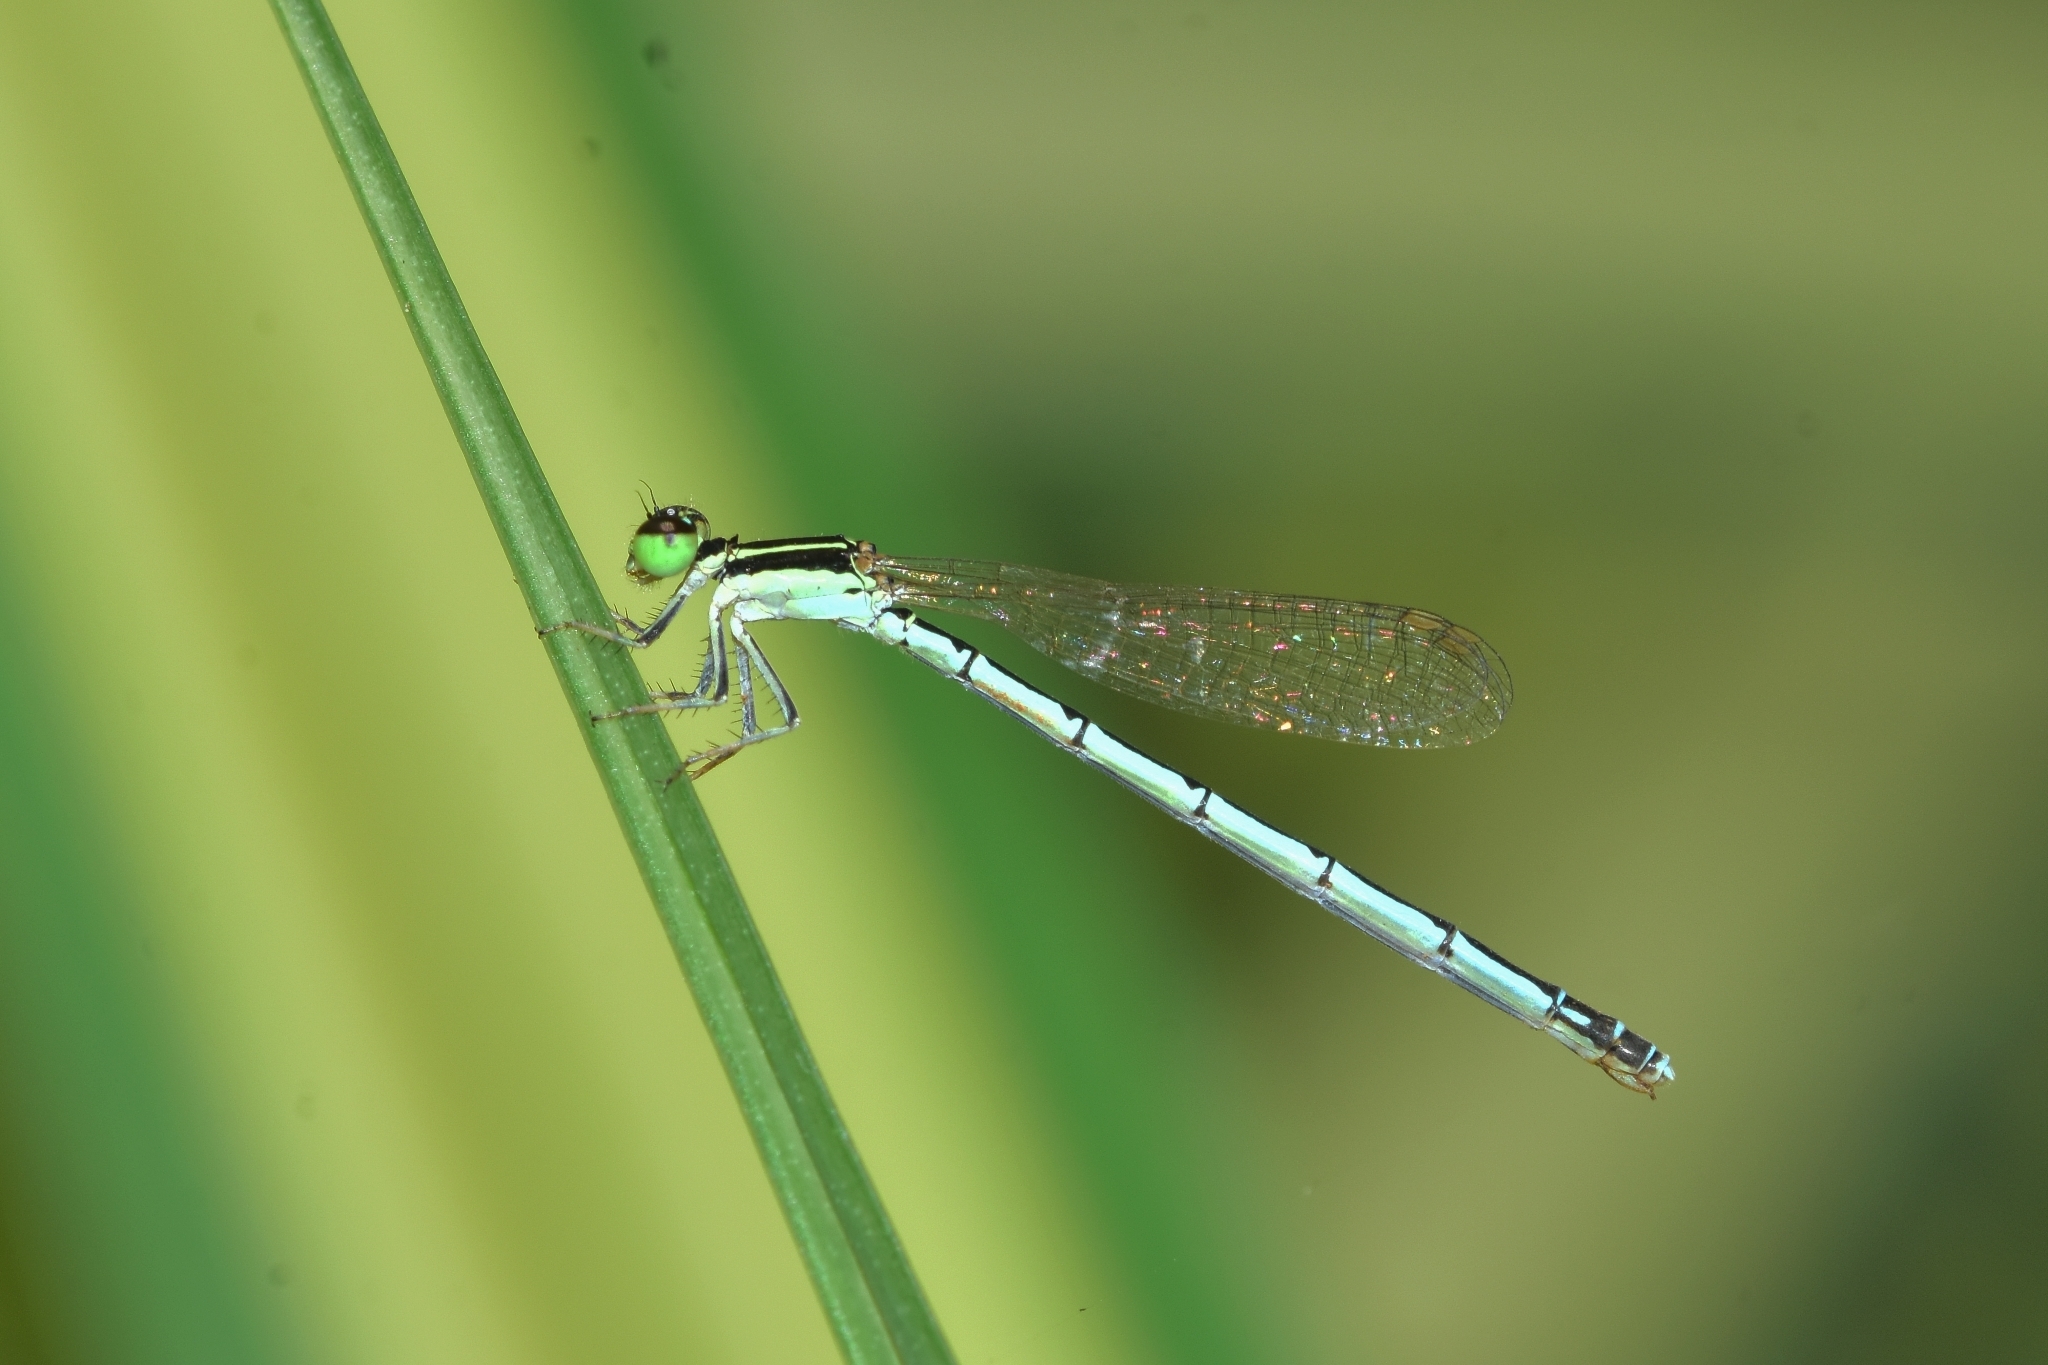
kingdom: Animalia
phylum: Arthropoda
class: Insecta
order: Odonata
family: Coenagrionidae
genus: Agriocnemis
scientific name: Agriocnemis pieris
